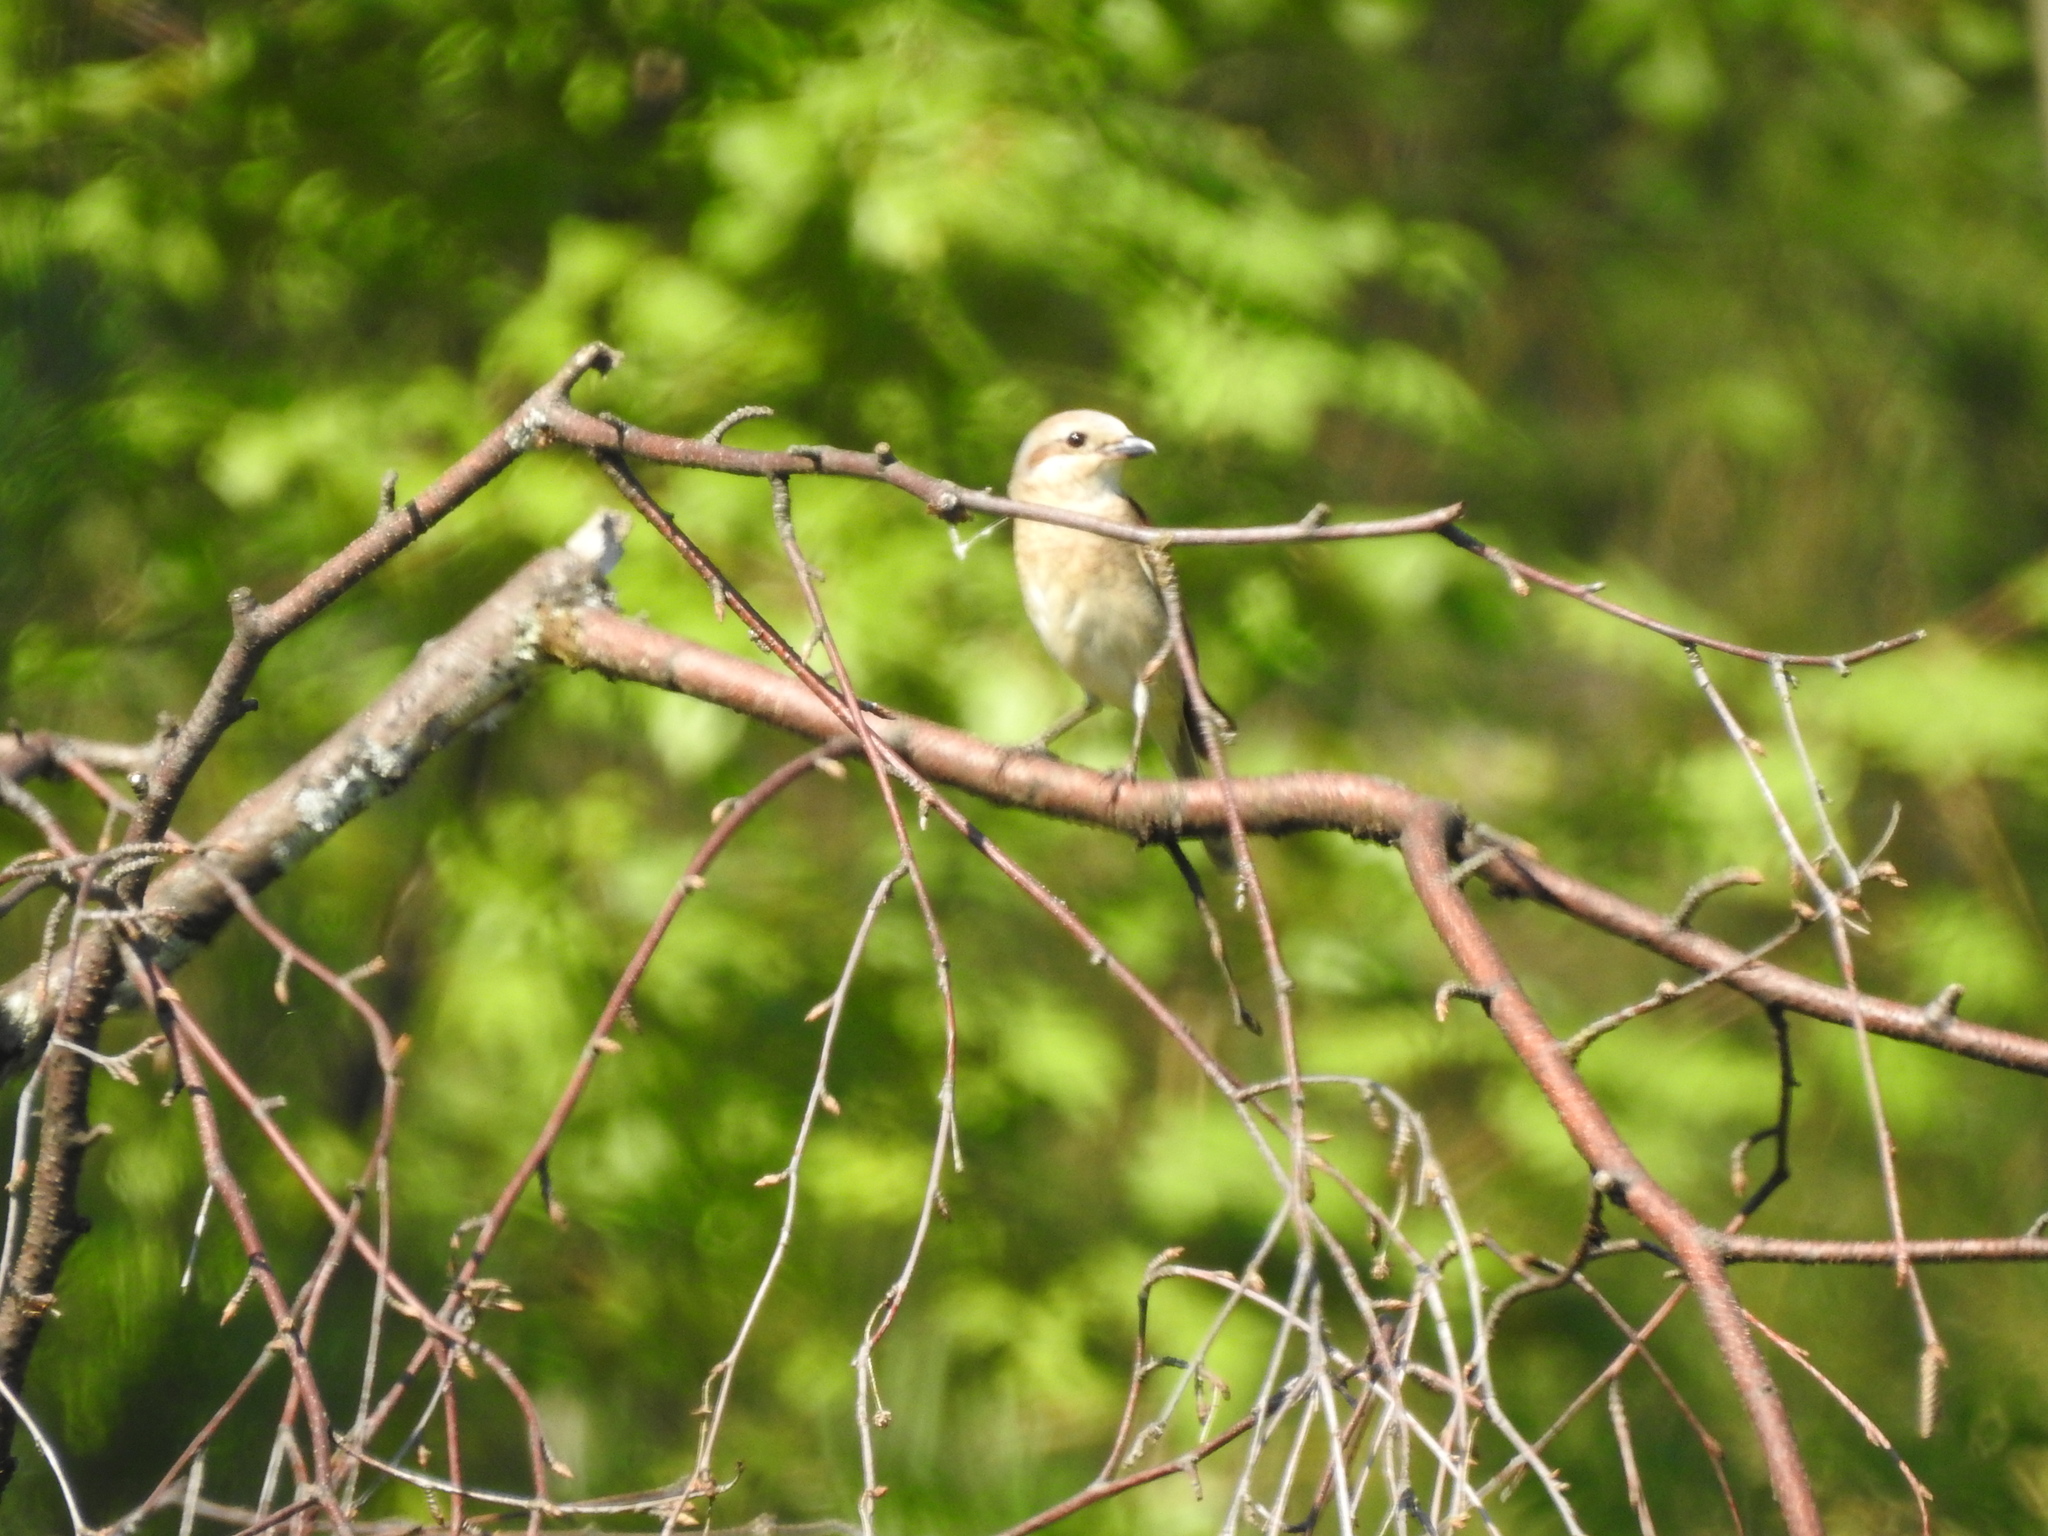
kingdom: Animalia
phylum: Chordata
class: Aves
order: Passeriformes
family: Laniidae
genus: Lanius
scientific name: Lanius collurio
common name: Red-backed shrike
